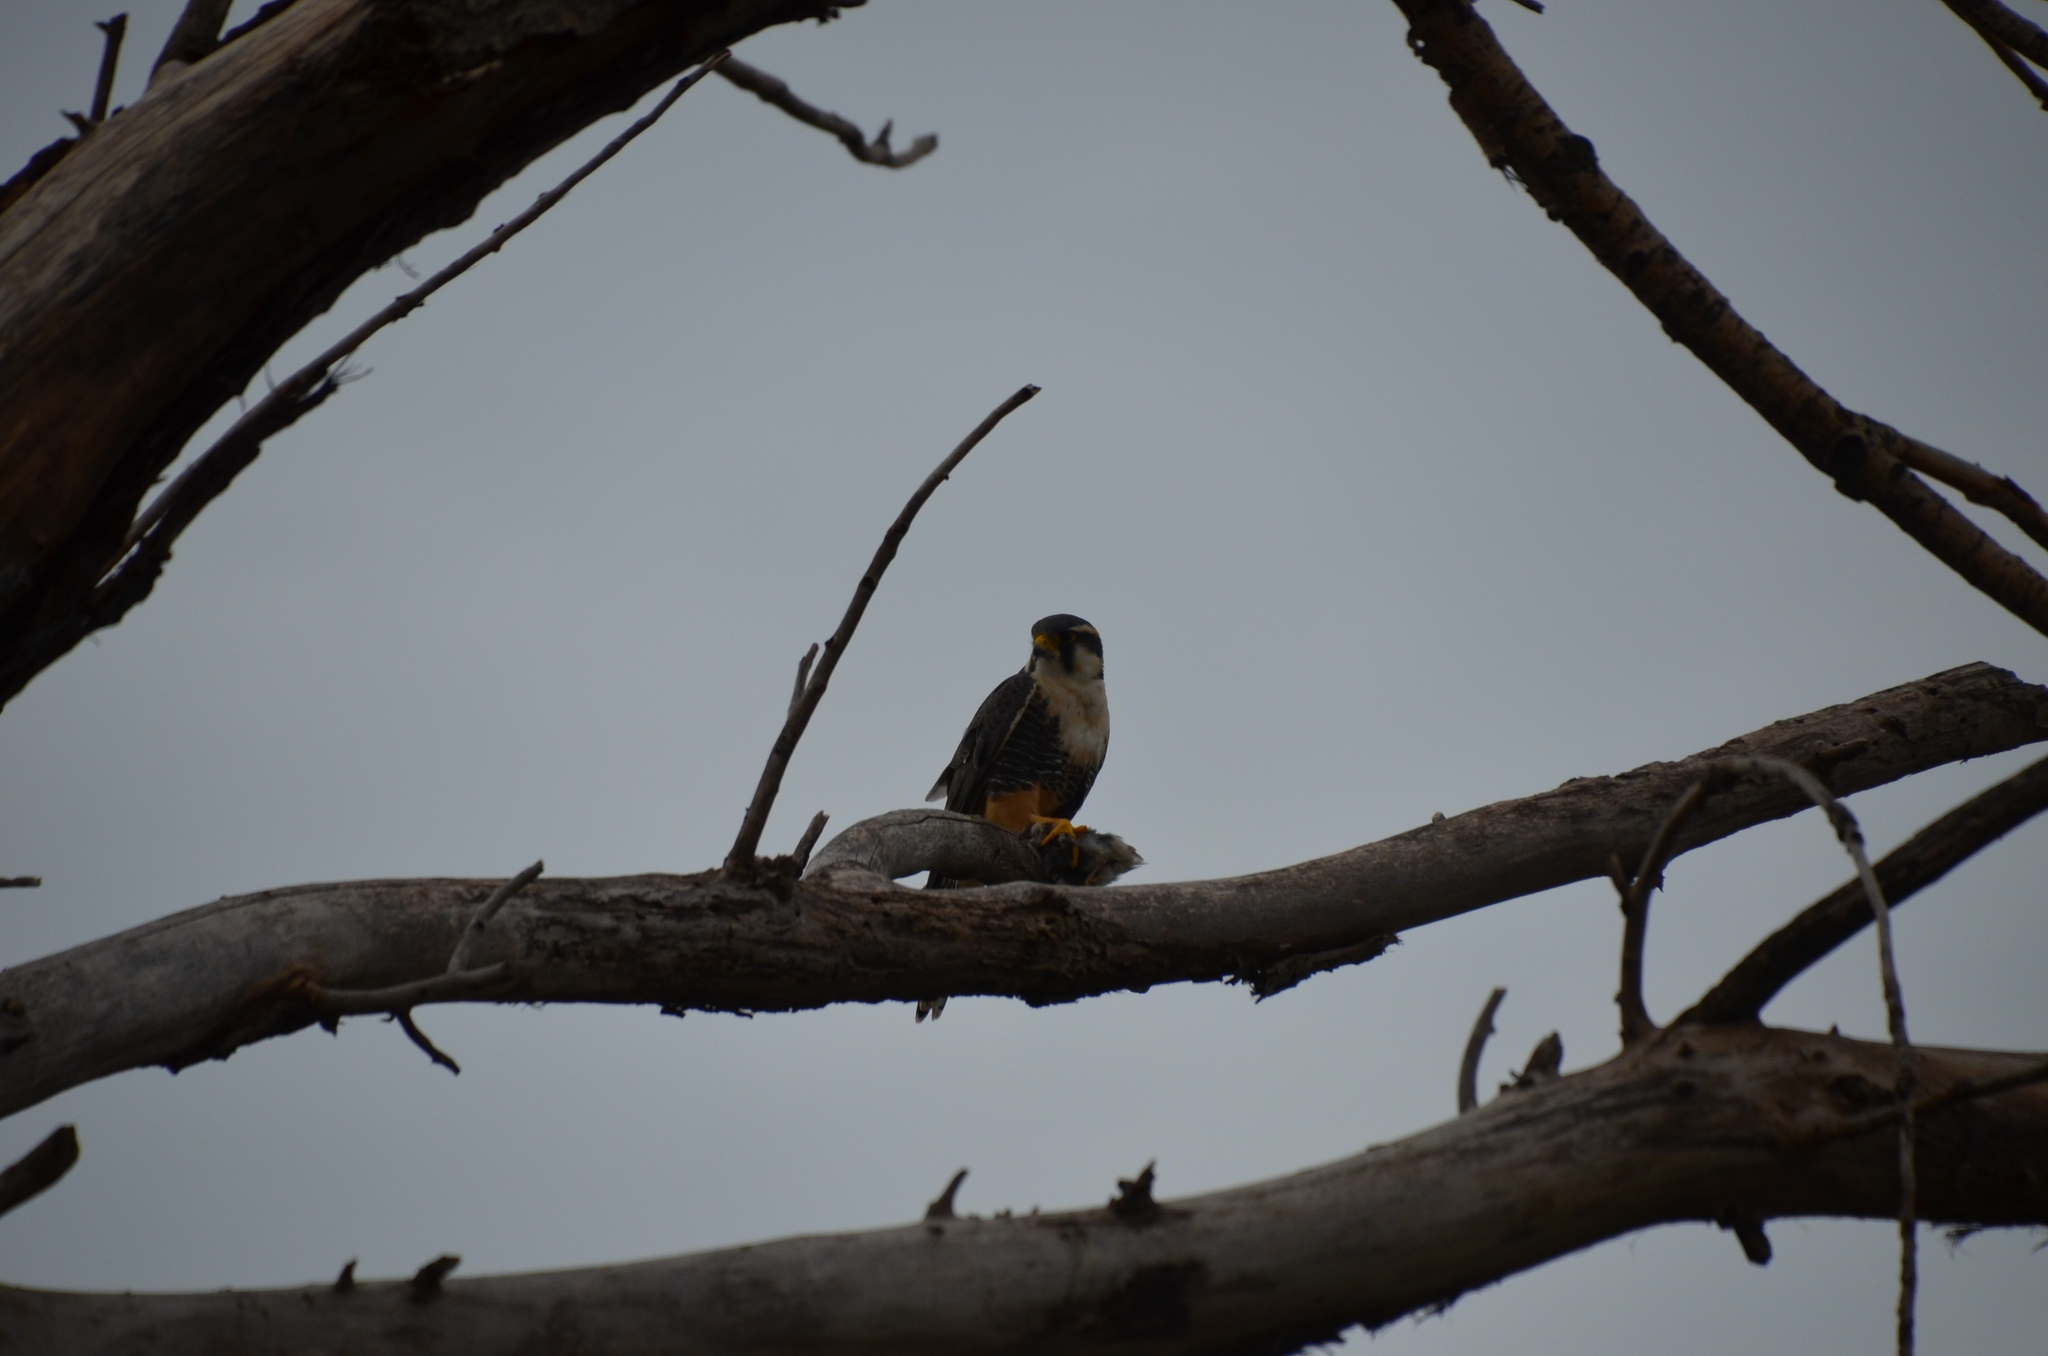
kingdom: Animalia
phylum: Chordata
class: Aves
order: Falconiformes
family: Falconidae
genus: Falco
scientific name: Falco femoralis
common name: Aplomado falcon
